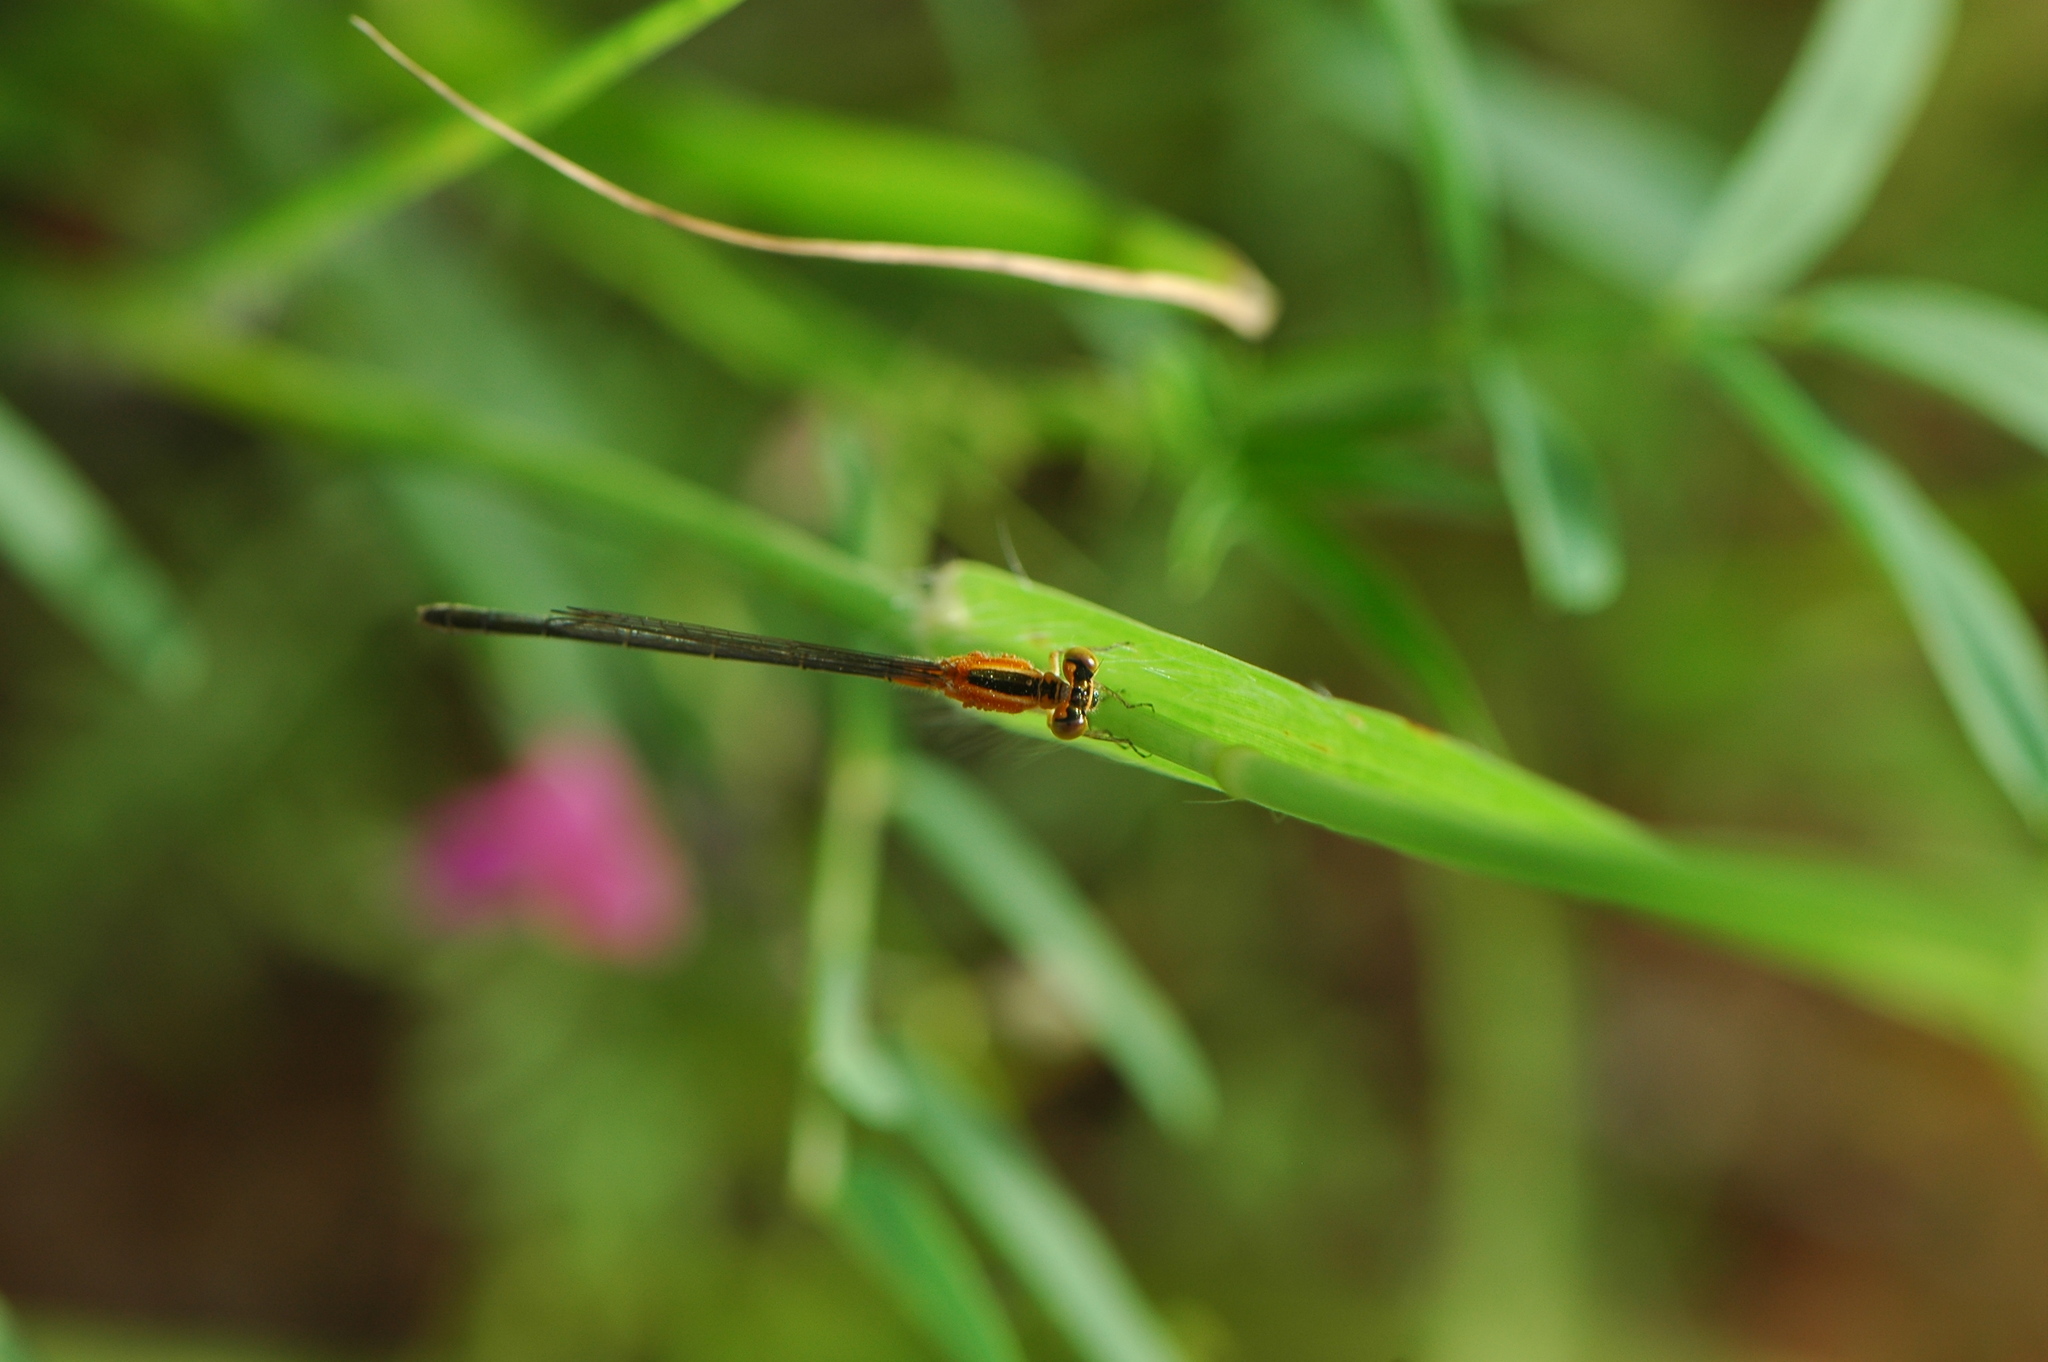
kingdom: Animalia
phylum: Arthropoda
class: Insecta
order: Odonata
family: Coenagrionidae
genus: Ischnura
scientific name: Ischnura senegalensis
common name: Tropical bluetail
